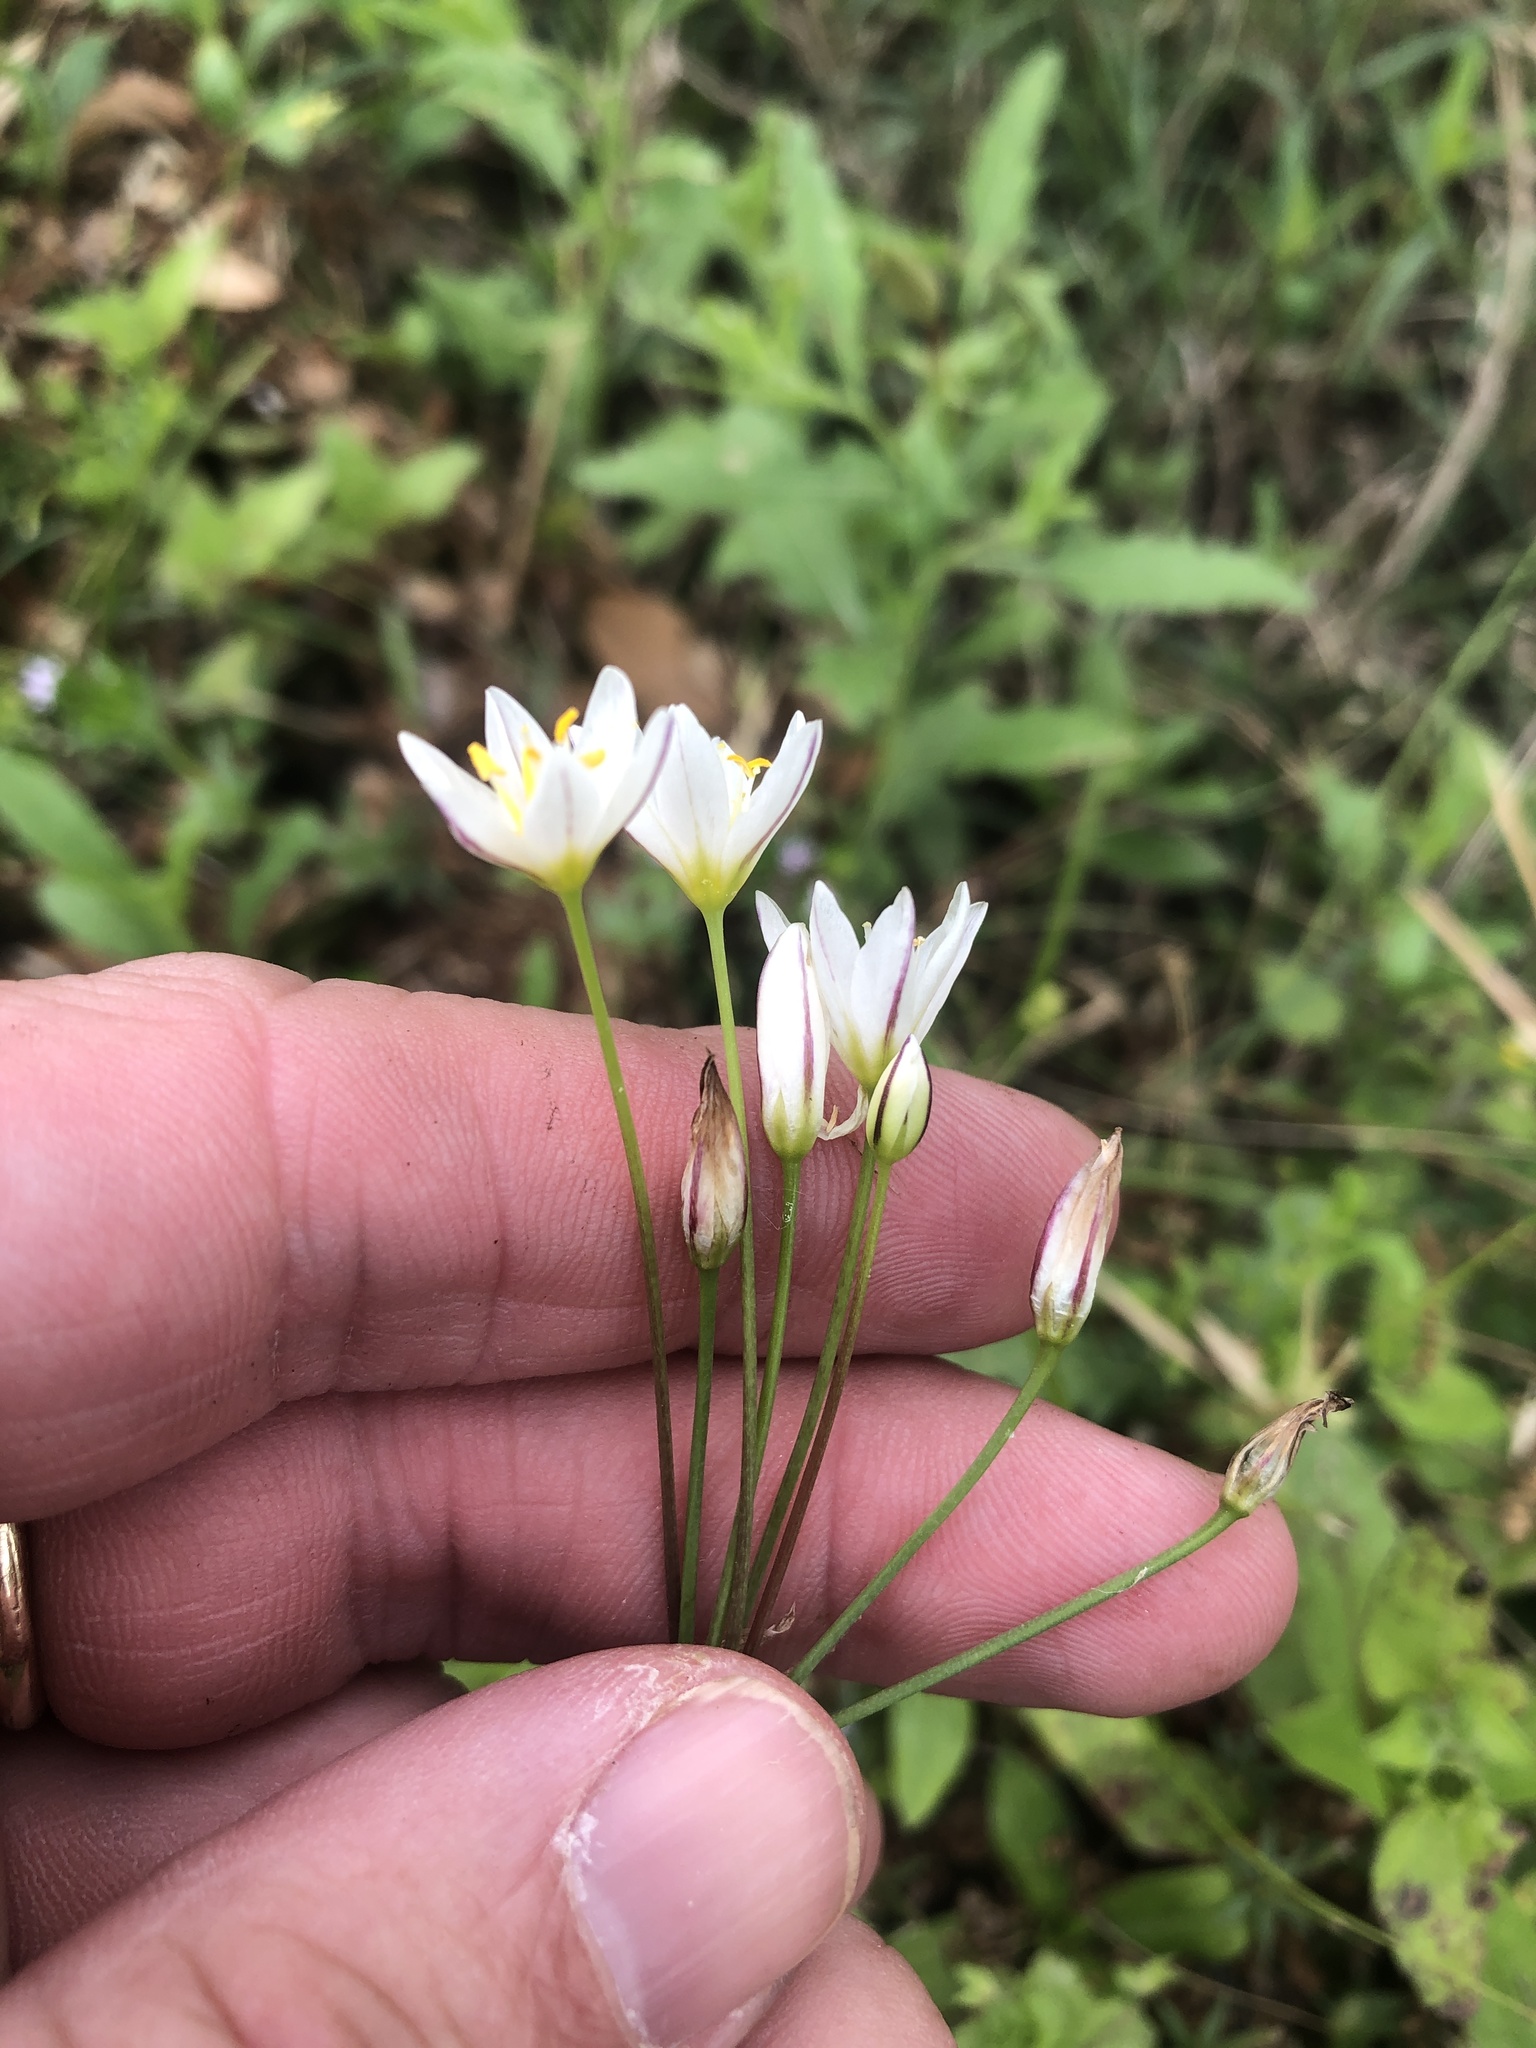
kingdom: Plantae
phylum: Tracheophyta
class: Liliopsida
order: Asparagales
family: Amaryllidaceae
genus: Nothoscordum
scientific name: Nothoscordum bivalve
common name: Crow-poison
